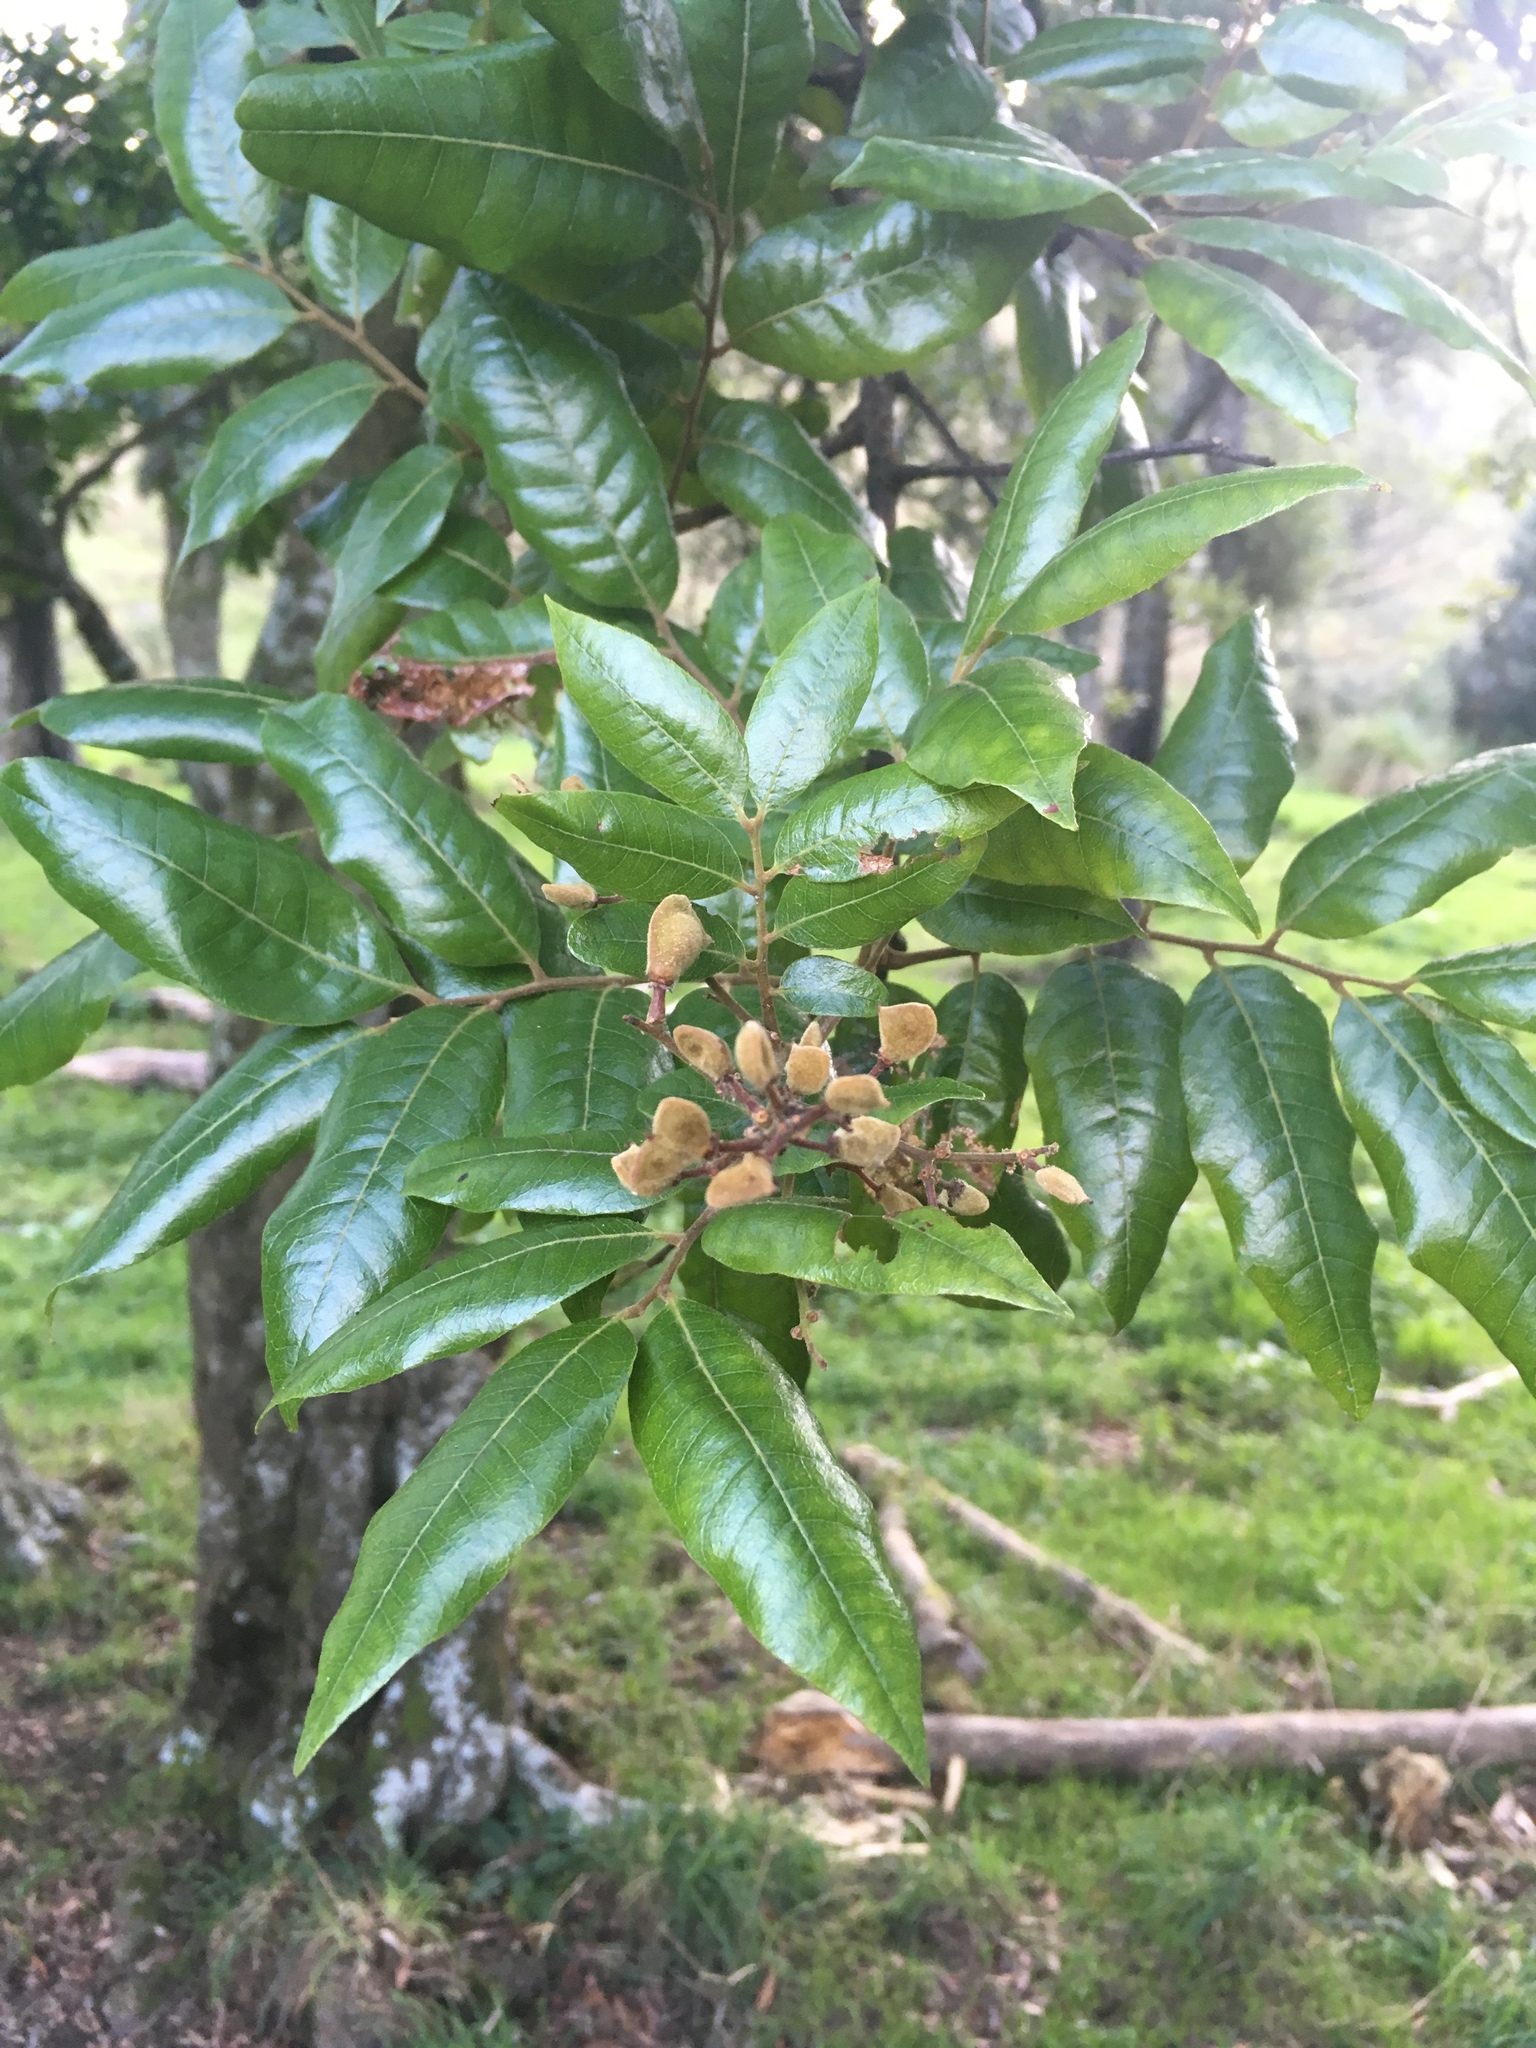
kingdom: Plantae
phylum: Tracheophyta
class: Magnoliopsida
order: Sapindales
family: Sapindaceae
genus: Alectryon
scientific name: Alectryon excelsus
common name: Three kings titoki
